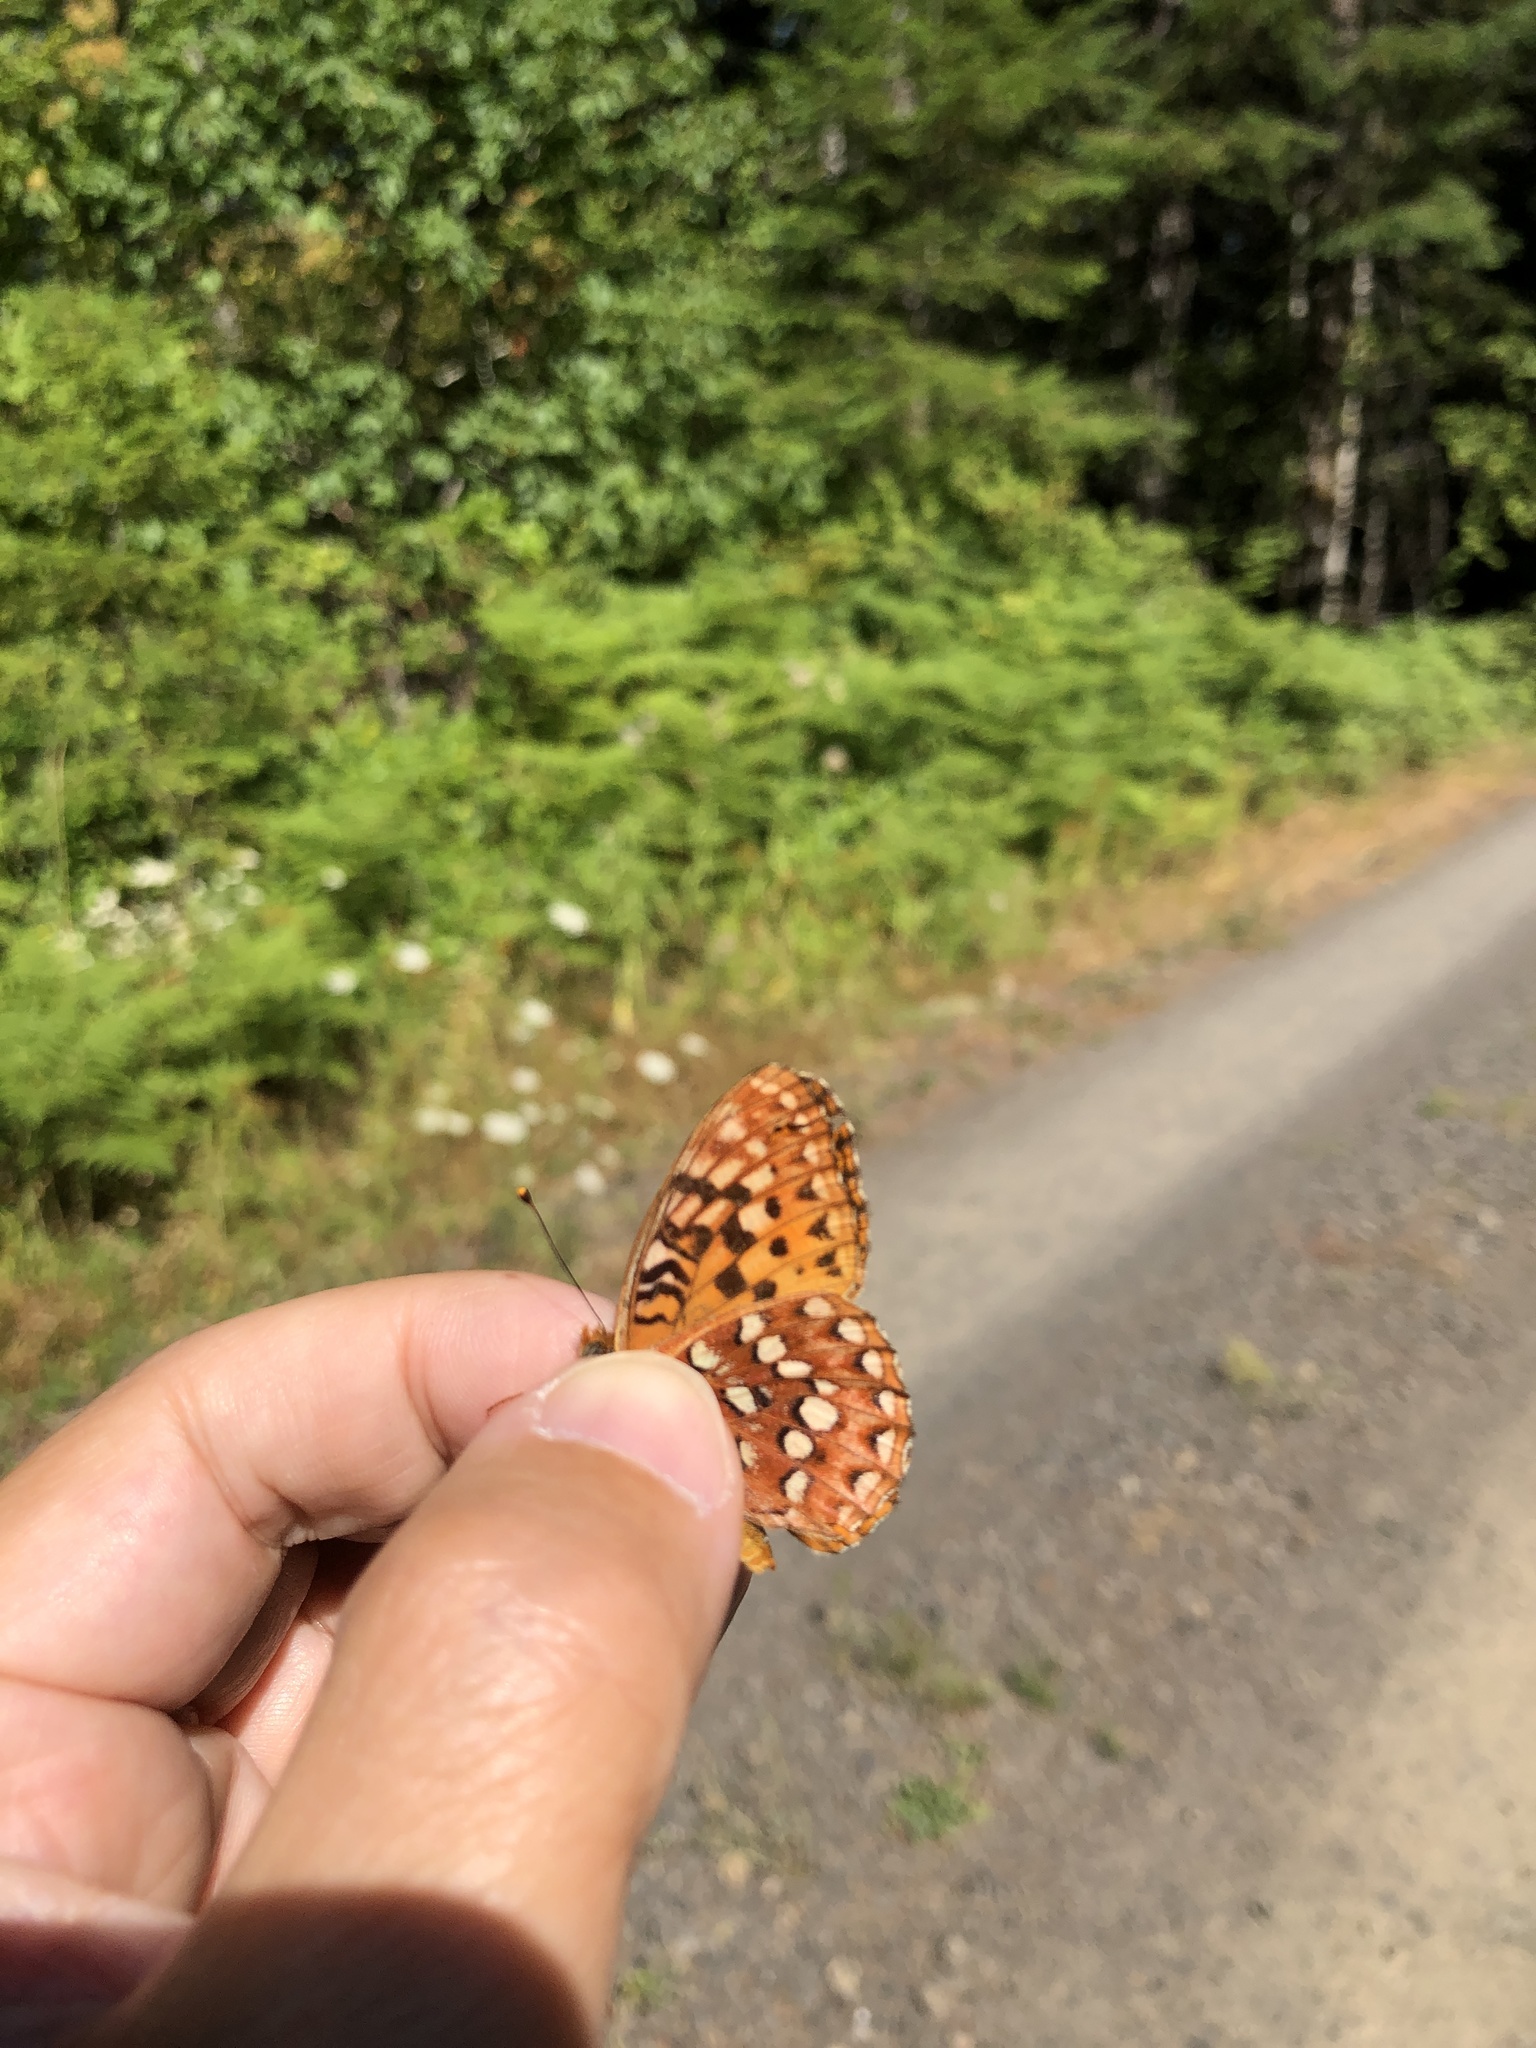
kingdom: Animalia
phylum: Arthropoda
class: Insecta
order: Lepidoptera
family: Nymphalidae
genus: Speyeria
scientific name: Speyeria hydaspe
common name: Hydaspe fritillary
